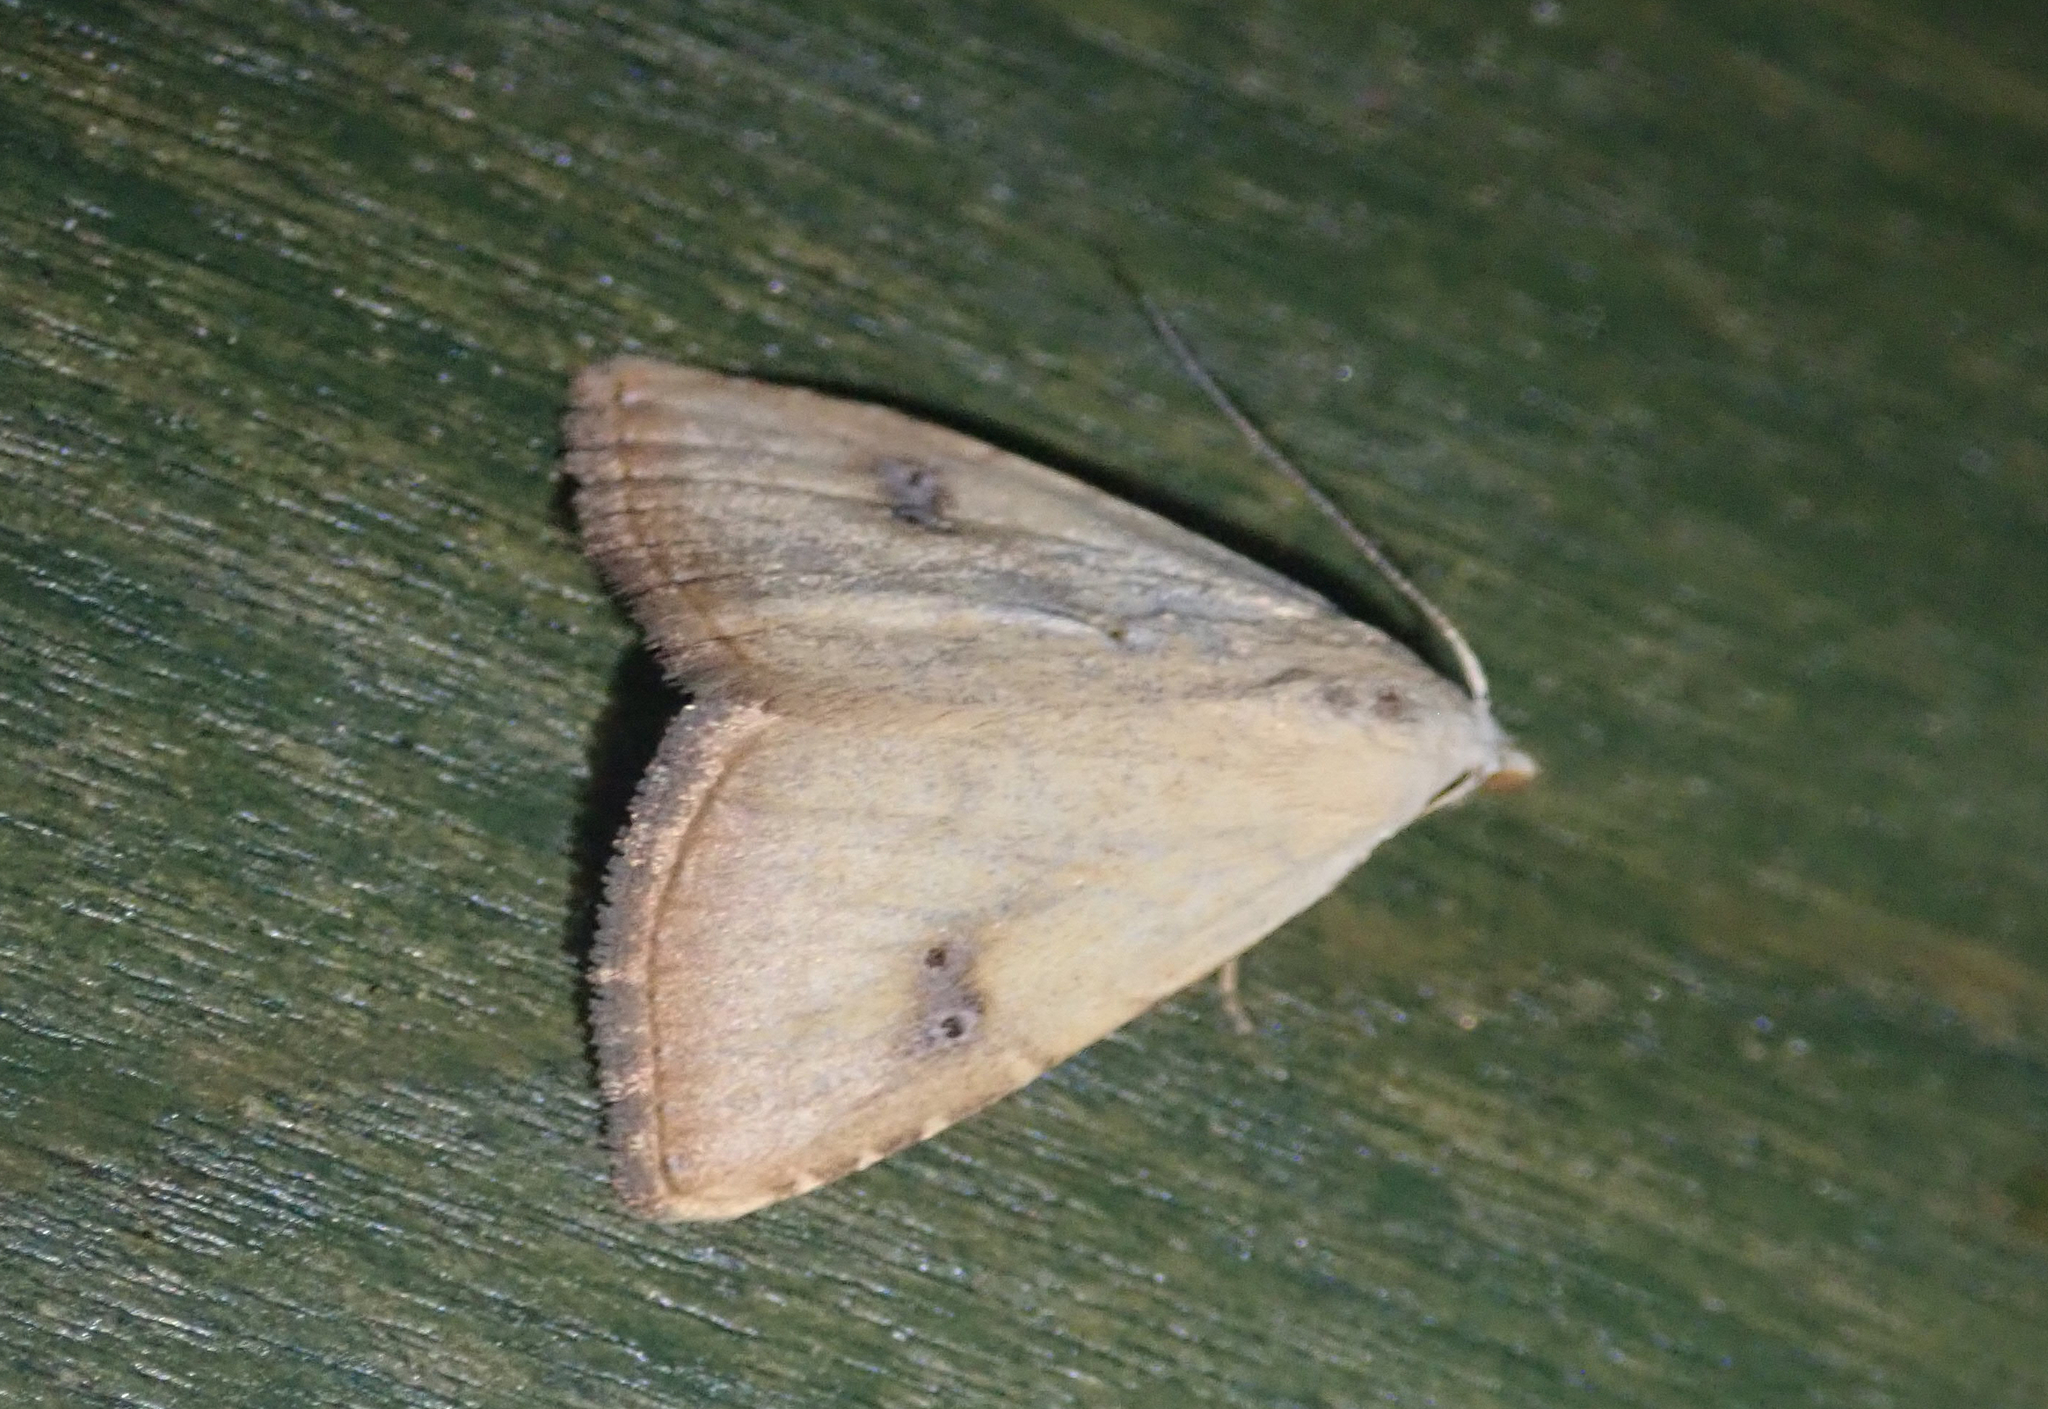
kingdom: Animalia
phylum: Arthropoda
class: Insecta
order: Lepidoptera
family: Erebidae
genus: Rivula
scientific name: Rivula sericealis
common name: Straw dot
